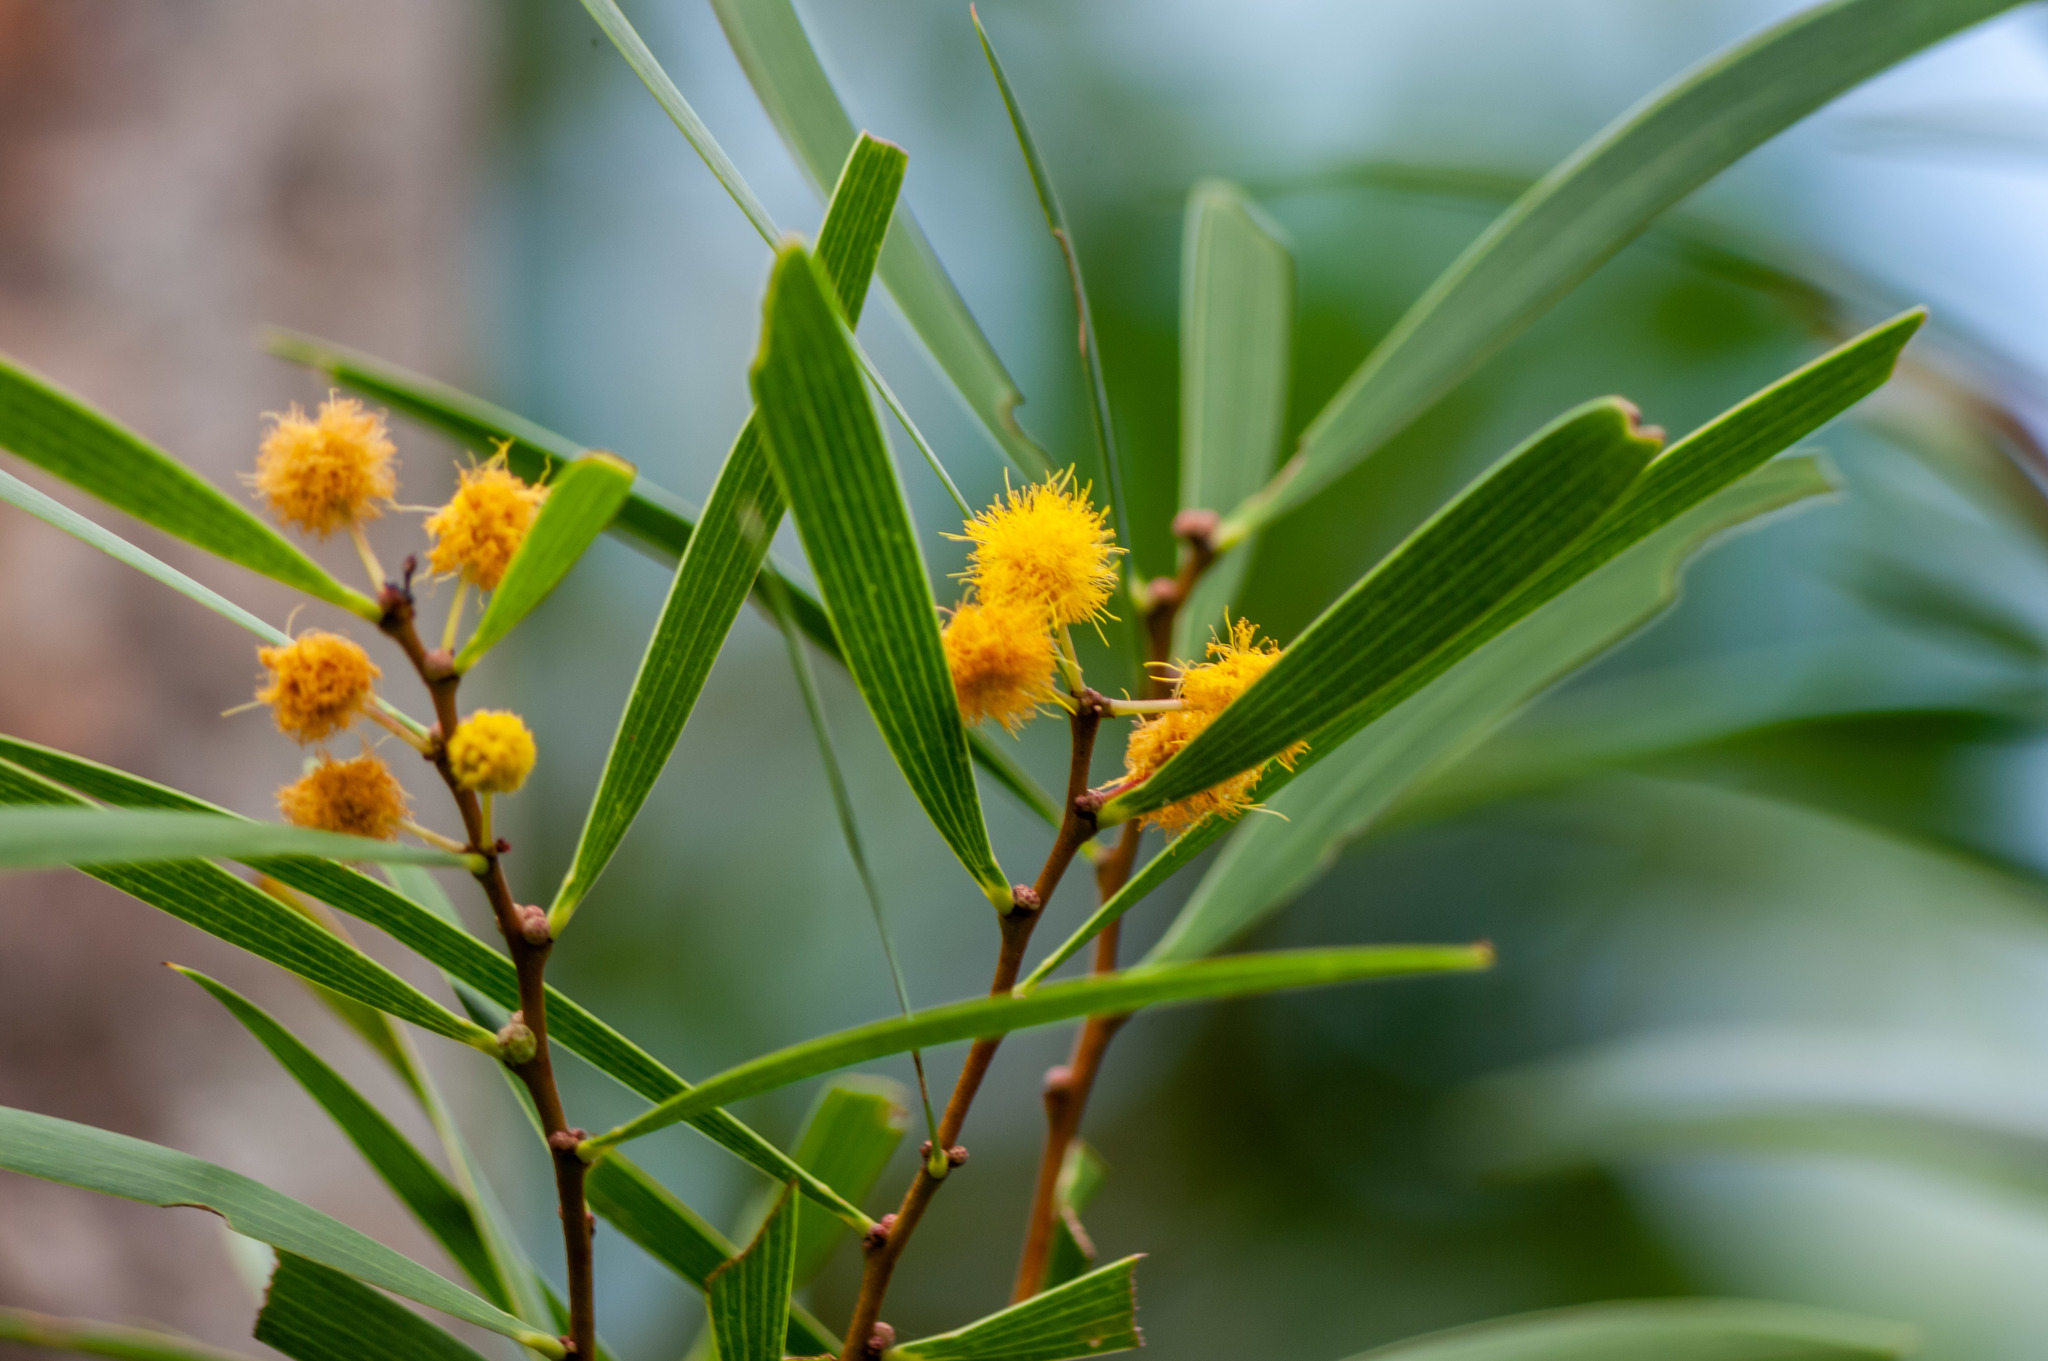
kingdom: Plantae
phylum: Tracheophyta
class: Magnoliopsida
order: Fabales
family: Fabaceae
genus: Acacia
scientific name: Acacia confusa
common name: Formosan koa
